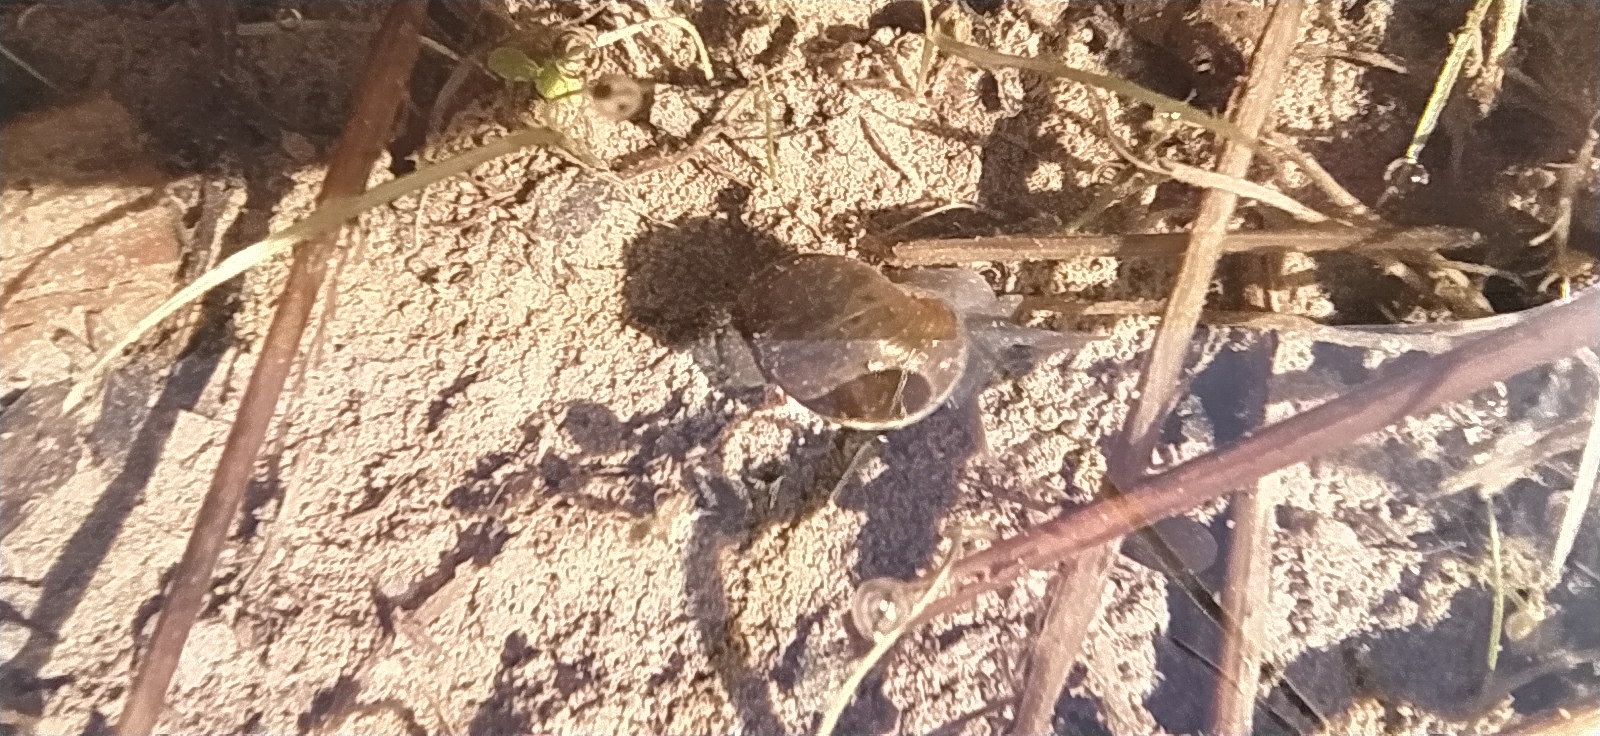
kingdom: Animalia
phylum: Mollusca
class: Gastropoda
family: Lymnaeidae
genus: Lymnaea
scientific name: Lymnaea stagnalis
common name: Great pond snail
